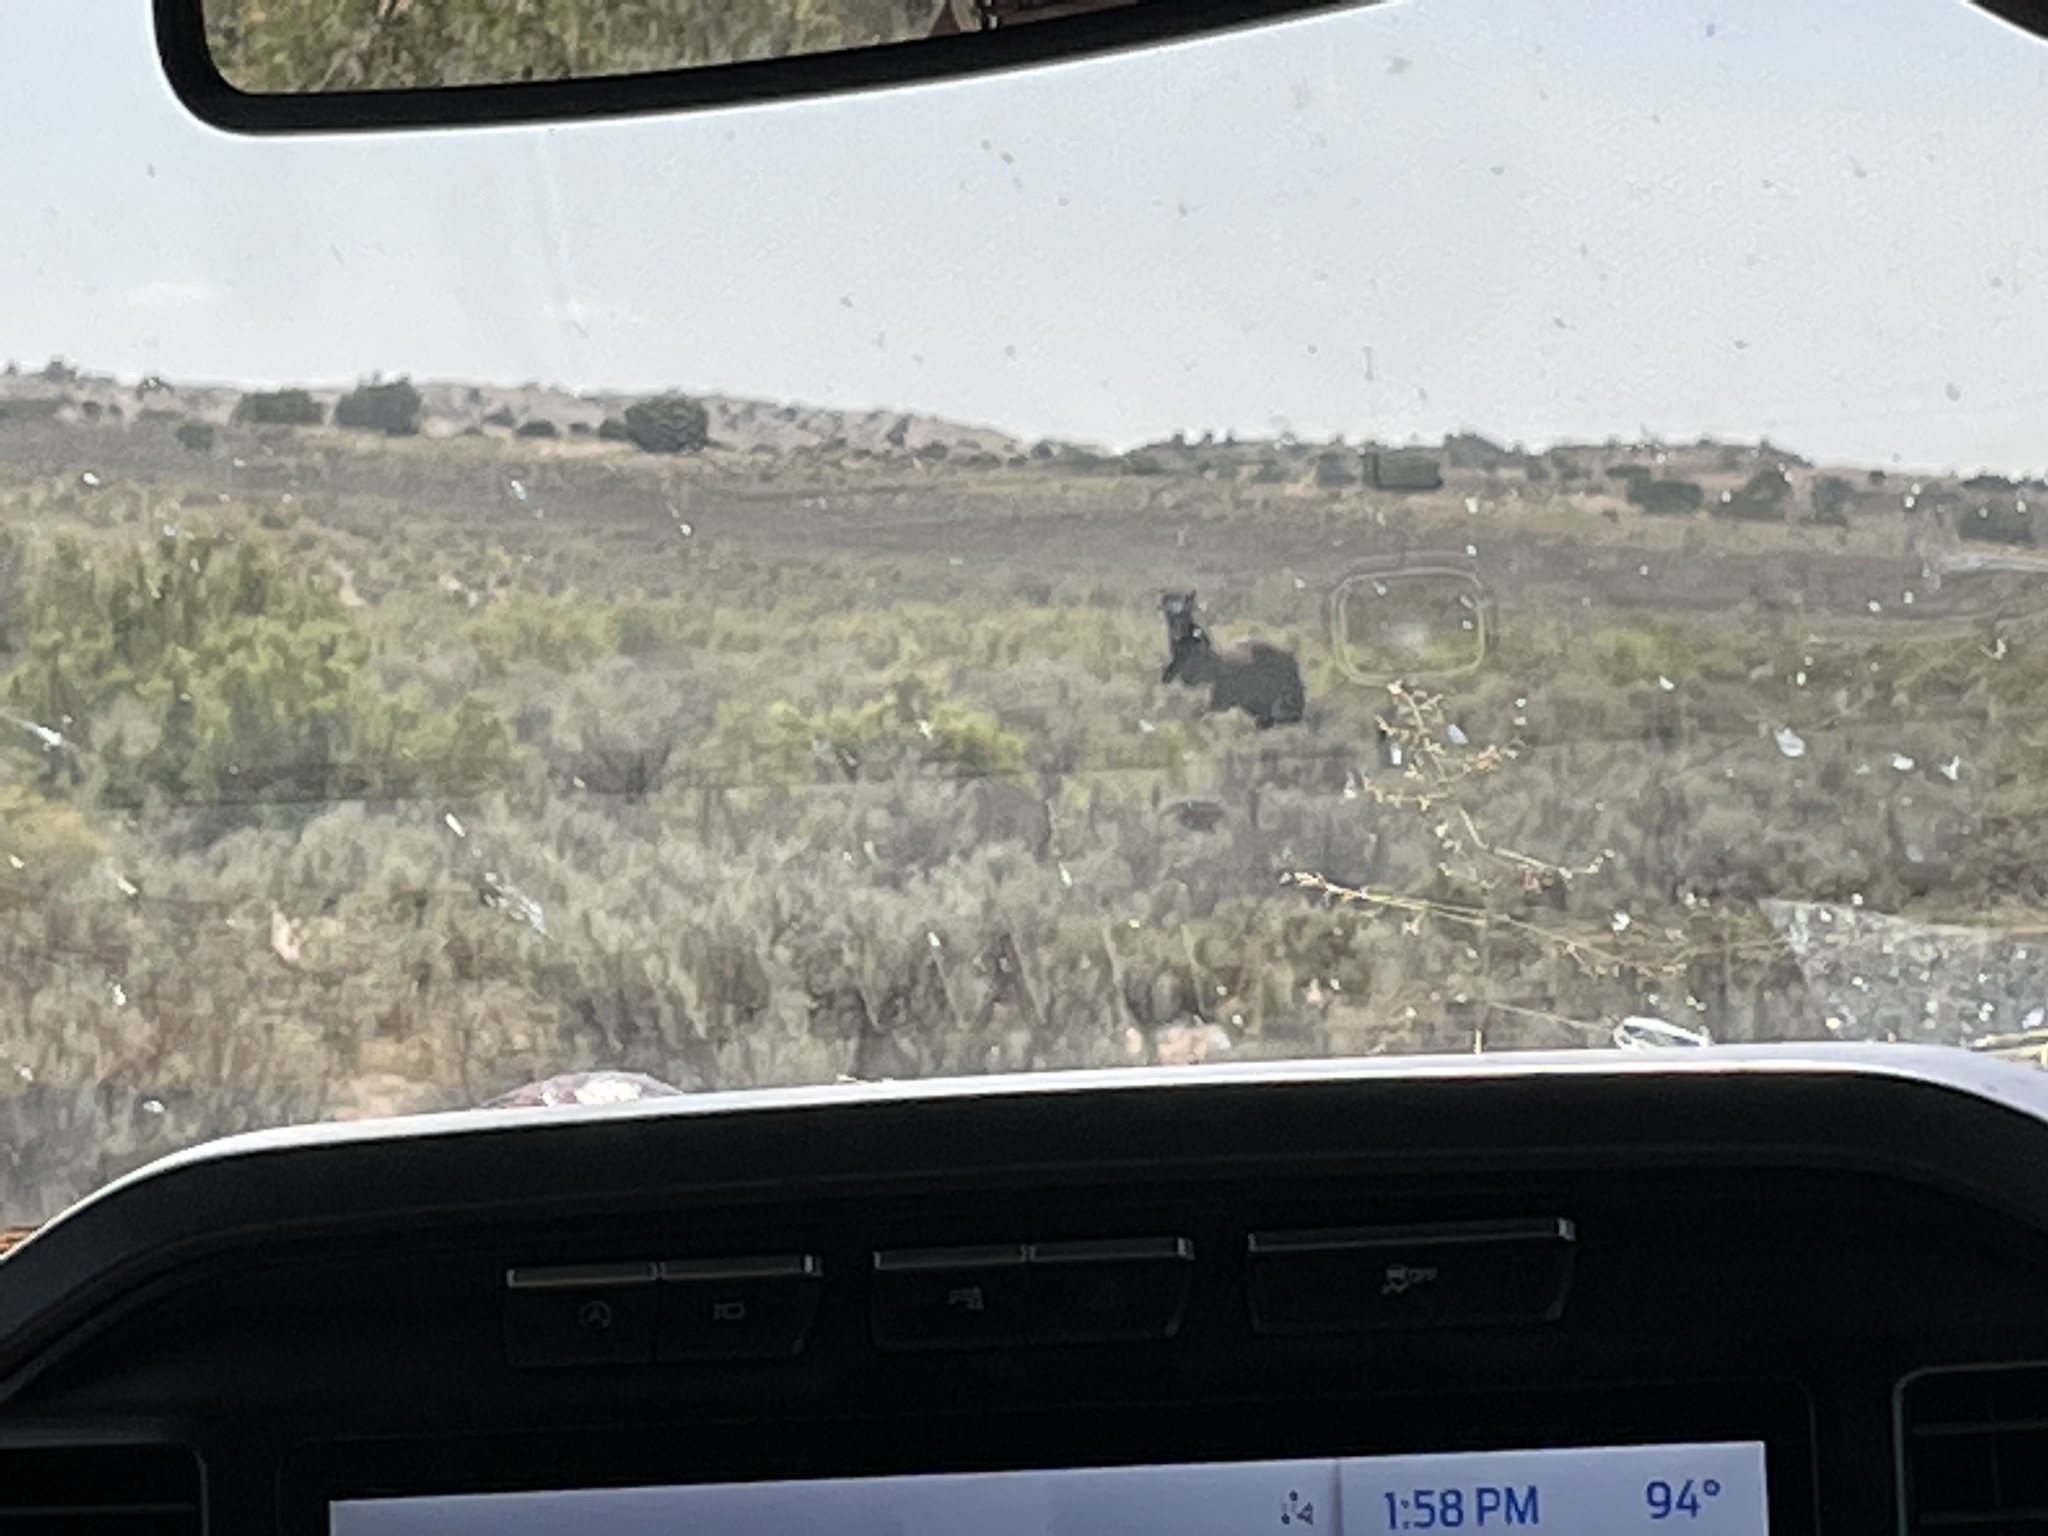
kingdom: Animalia
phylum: Chordata
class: Mammalia
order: Perissodactyla
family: Equidae
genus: Equus
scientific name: Equus caballus
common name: Horse
